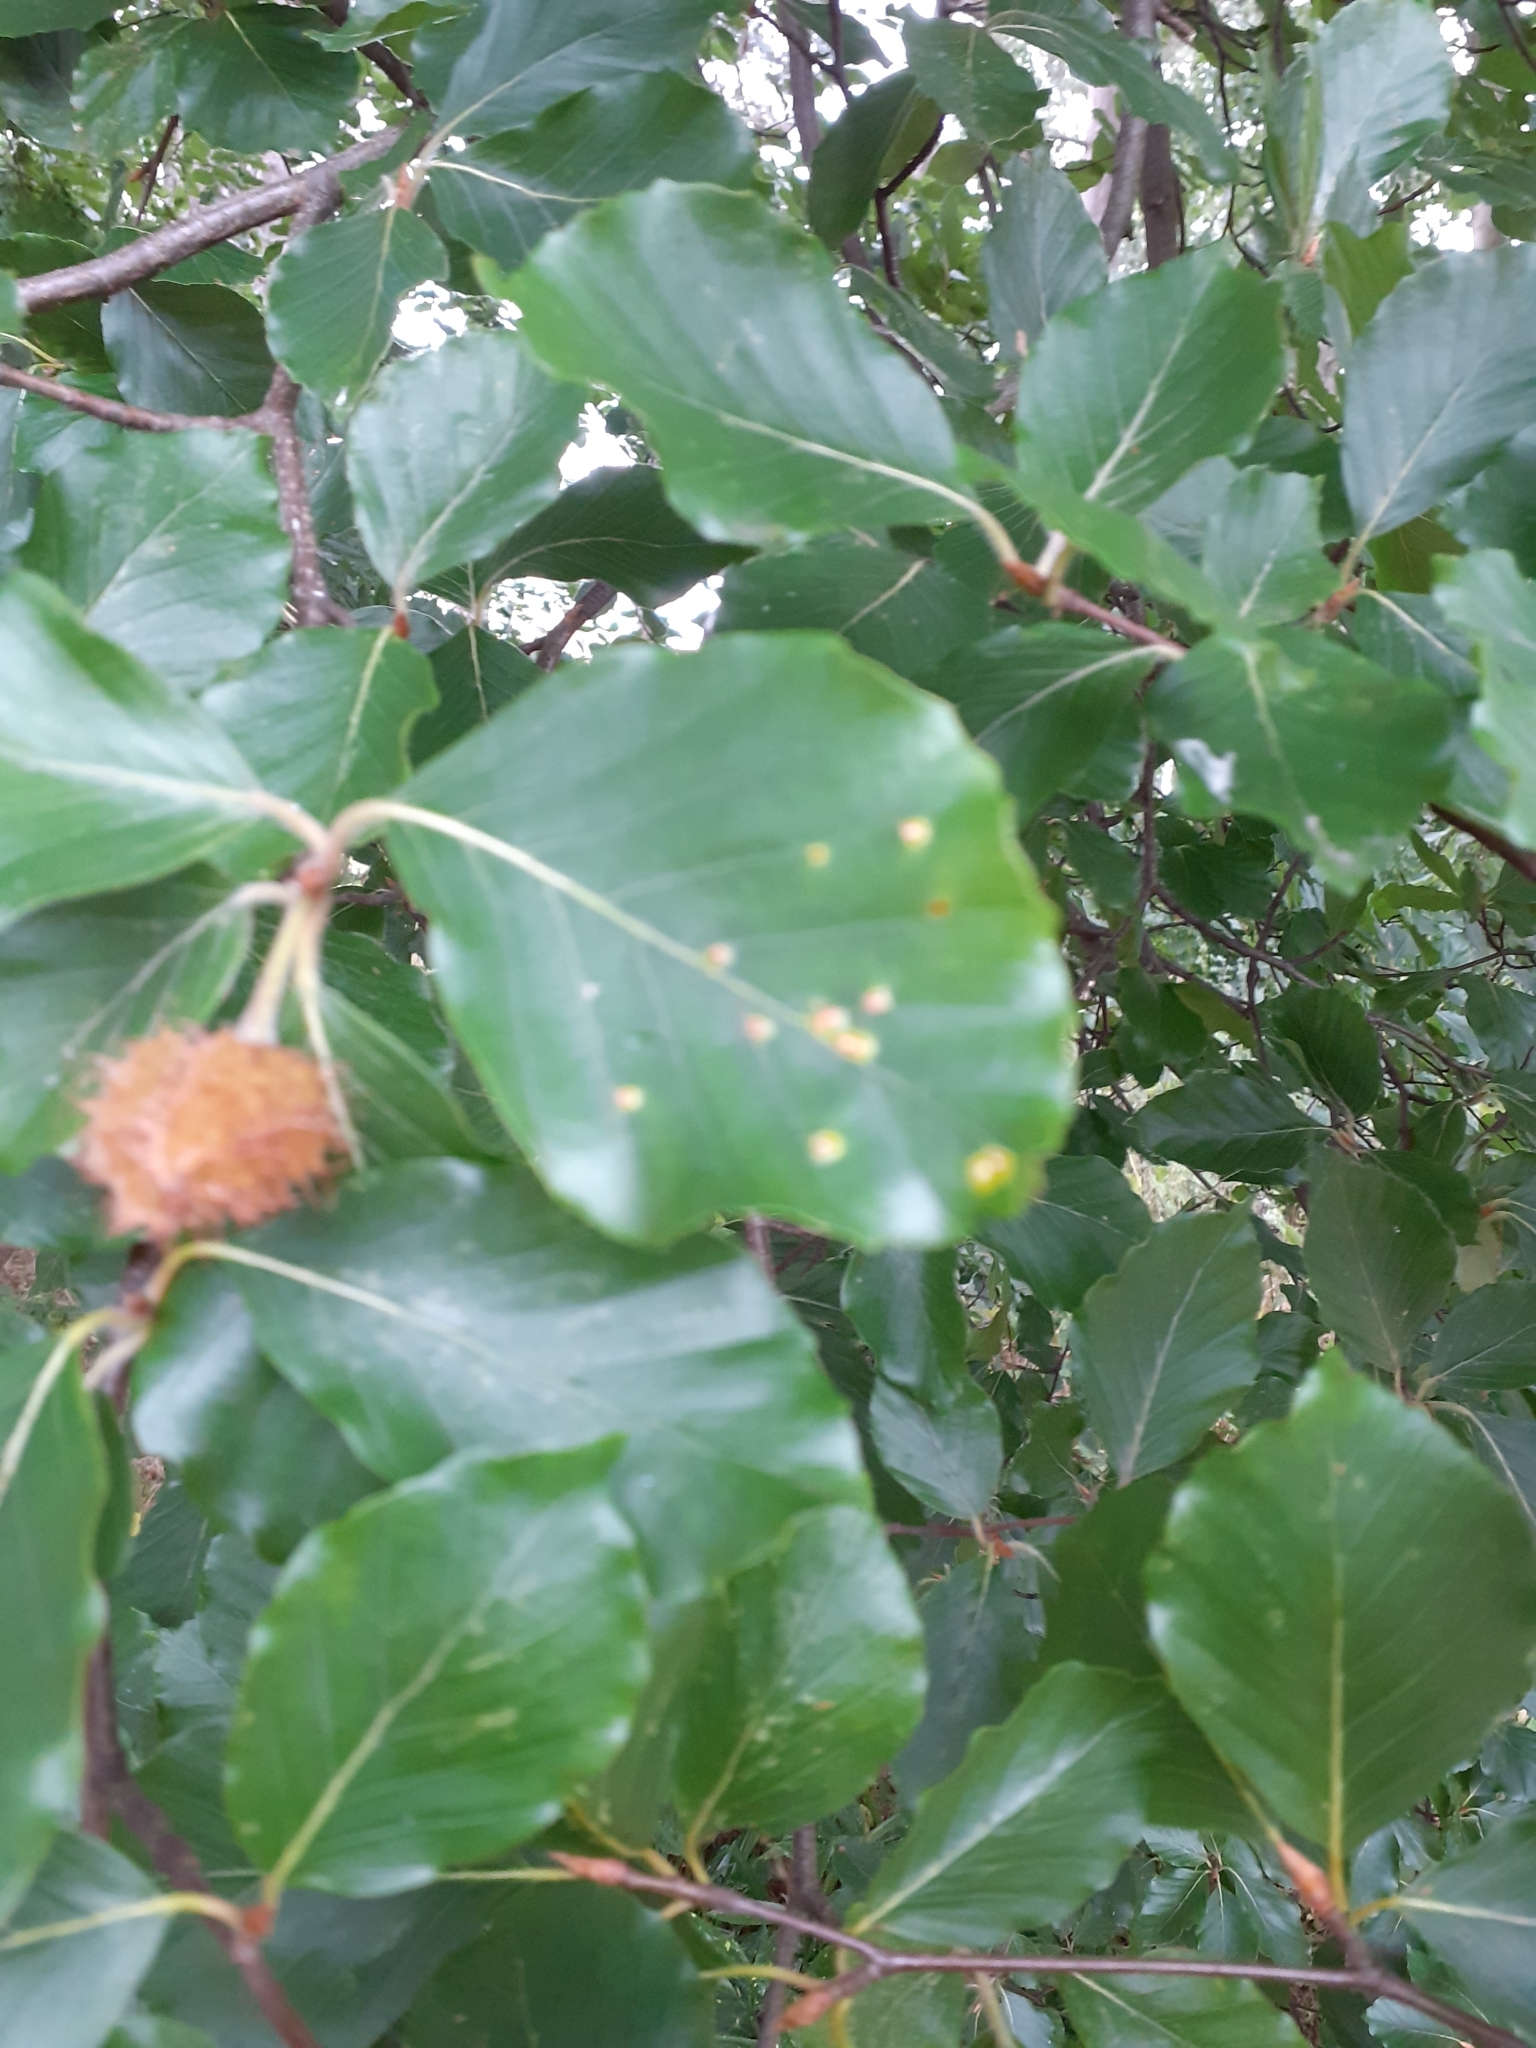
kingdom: Animalia
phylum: Arthropoda
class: Insecta
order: Diptera
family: Cecidomyiidae
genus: Hartigiola
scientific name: Hartigiola annulipes
